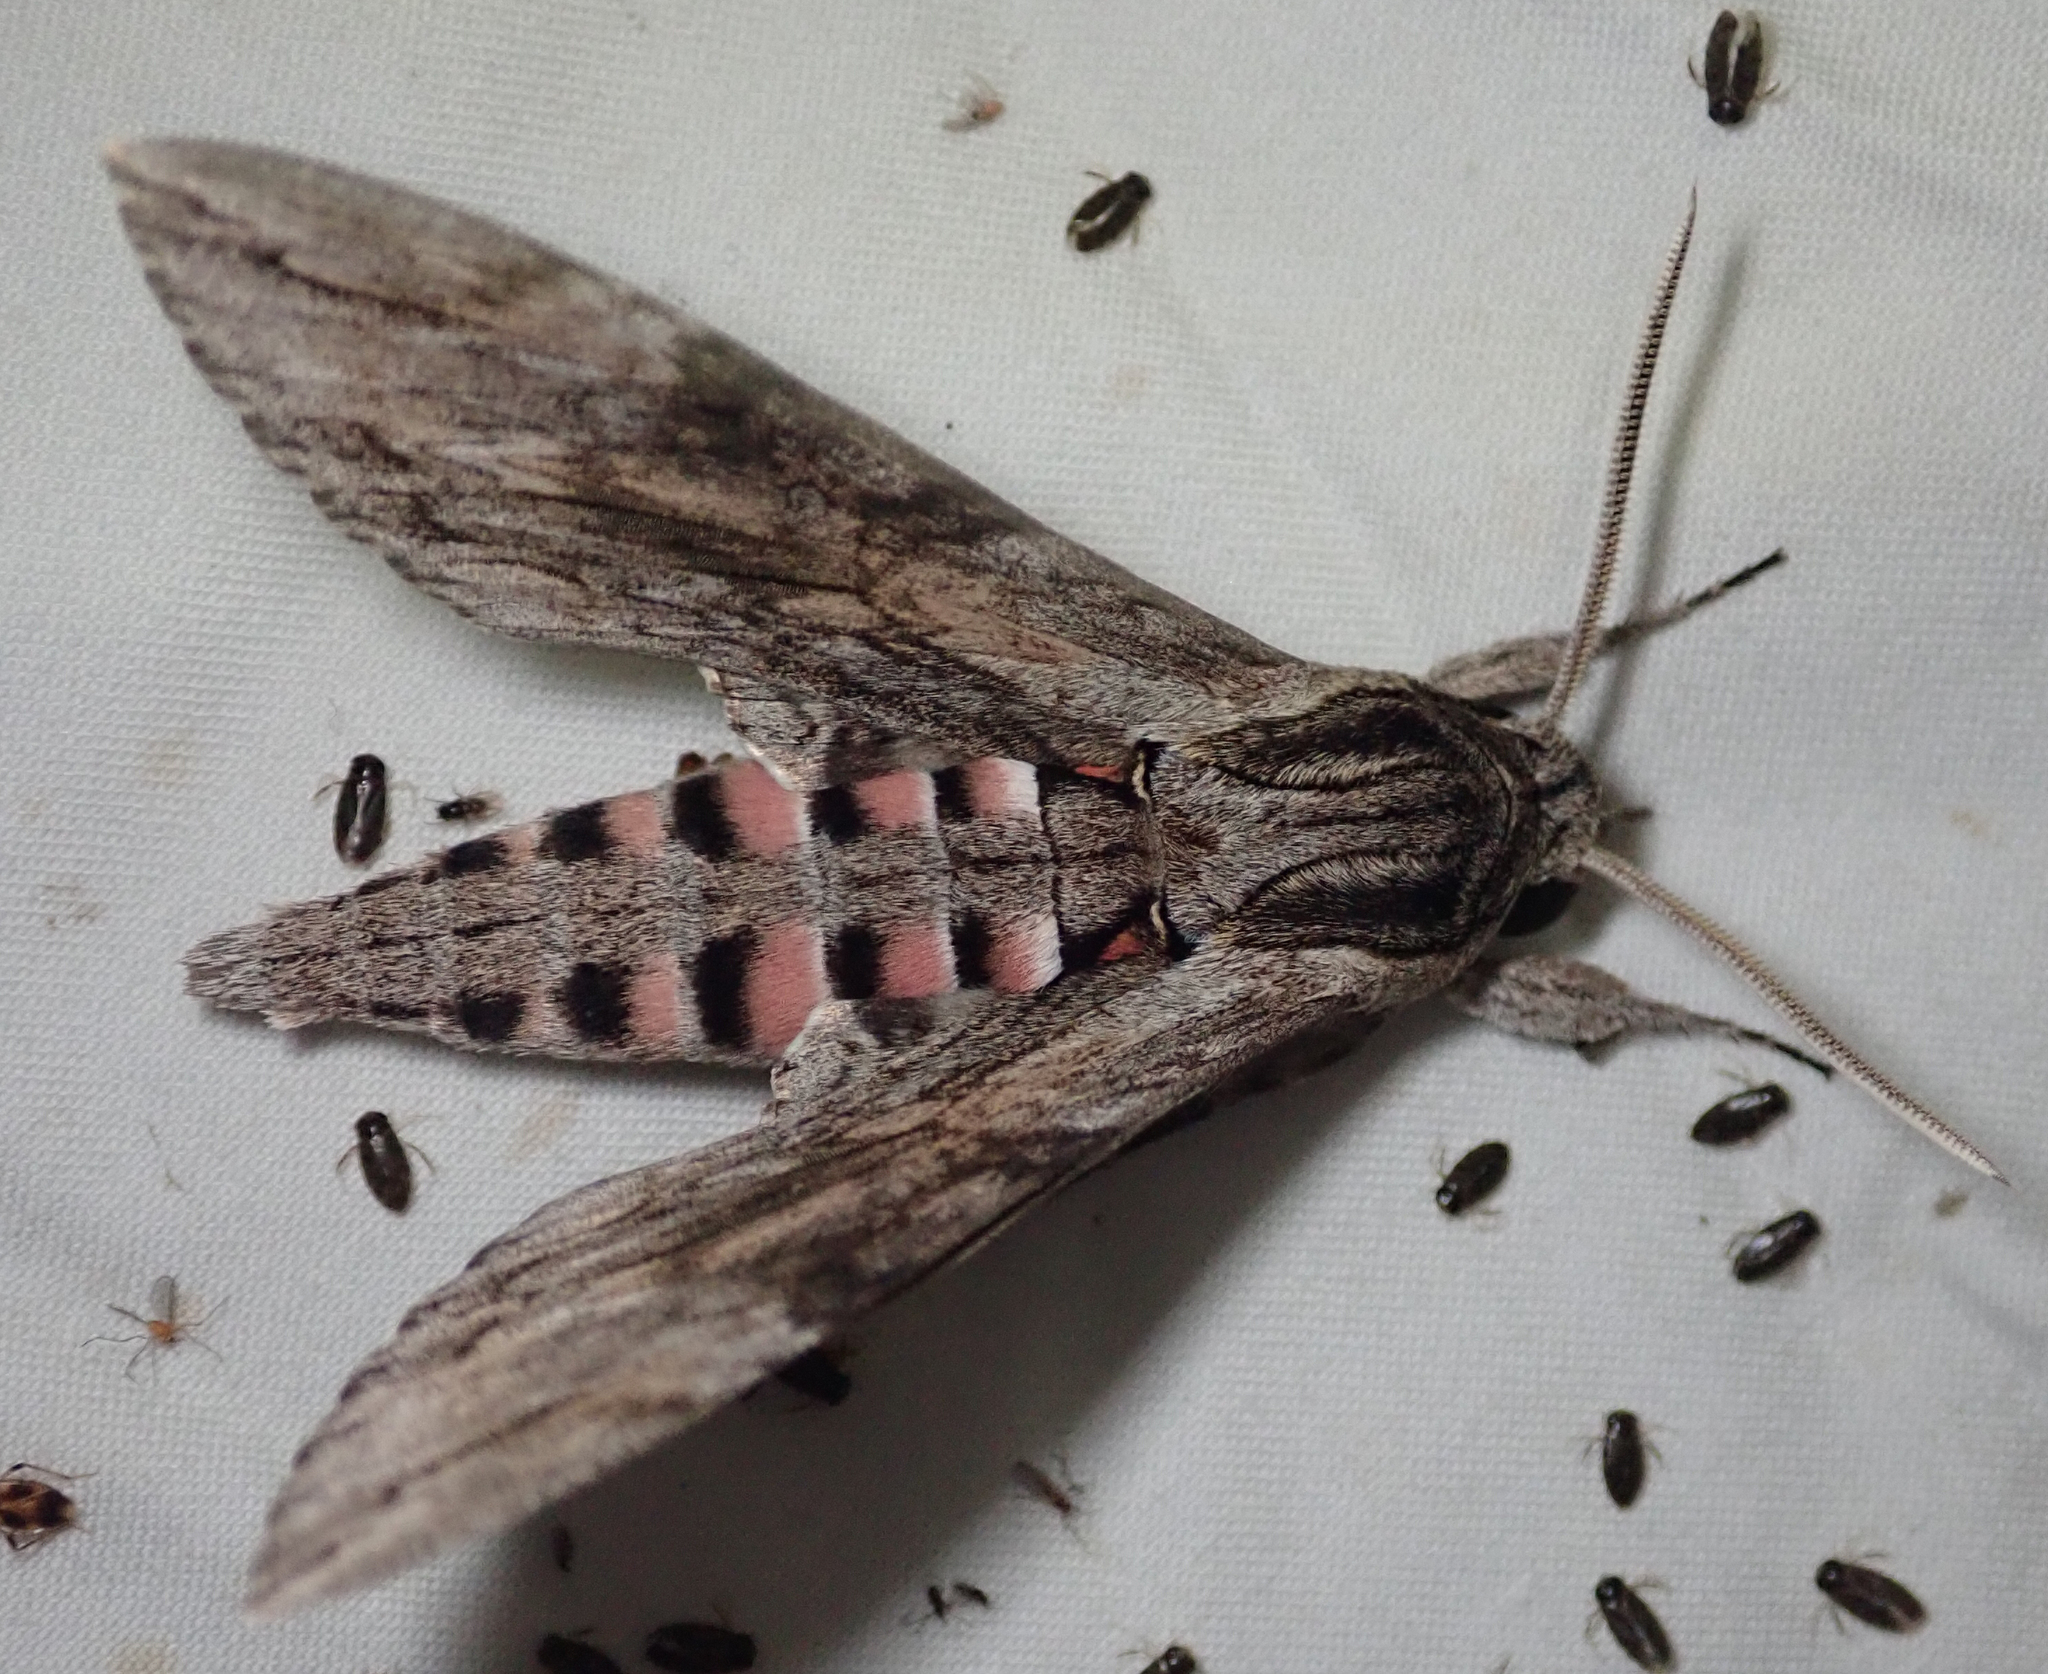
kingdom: Animalia
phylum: Arthropoda
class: Insecta
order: Lepidoptera
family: Sphingidae
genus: Agrius
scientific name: Agrius convolvuli
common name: Convolvulus hawkmoth
